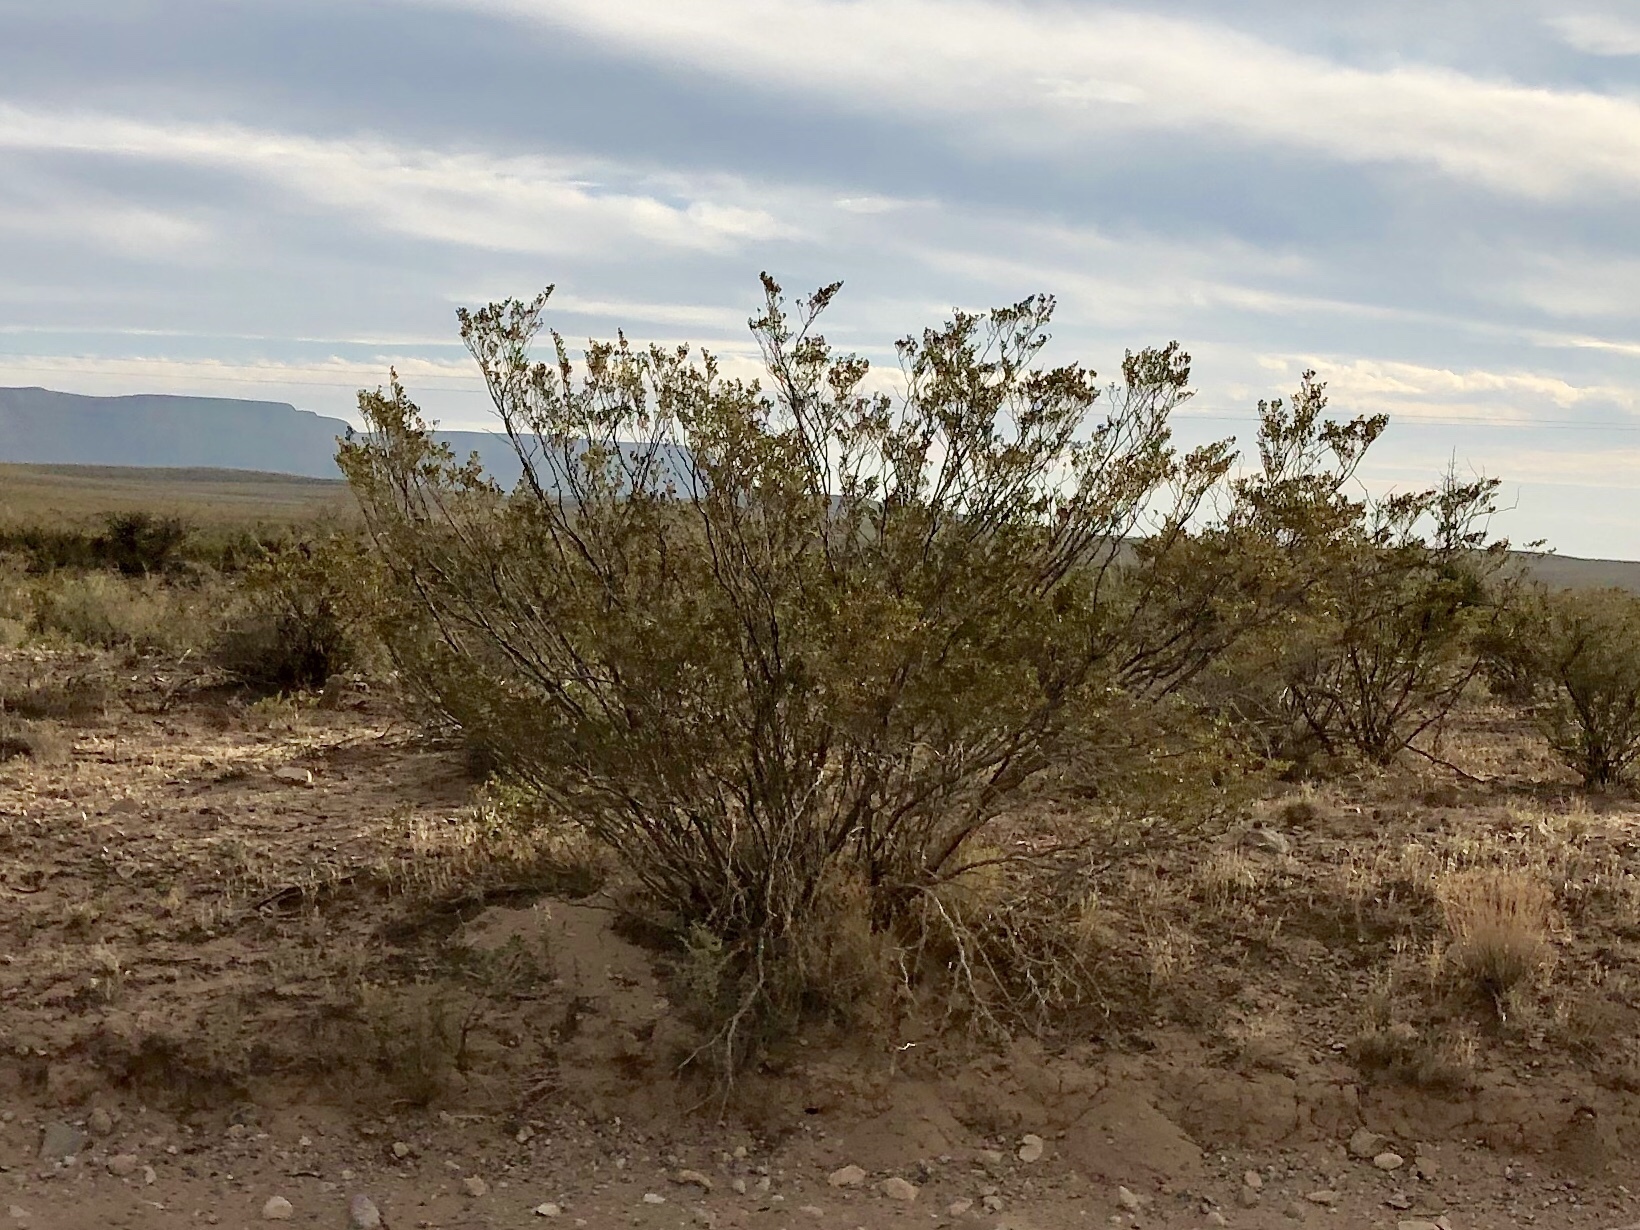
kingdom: Plantae
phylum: Tracheophyta
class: Magnoliopsida
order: Zygophyllales
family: Zygophyllaceae
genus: Larrea
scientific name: Larrea tridentata
